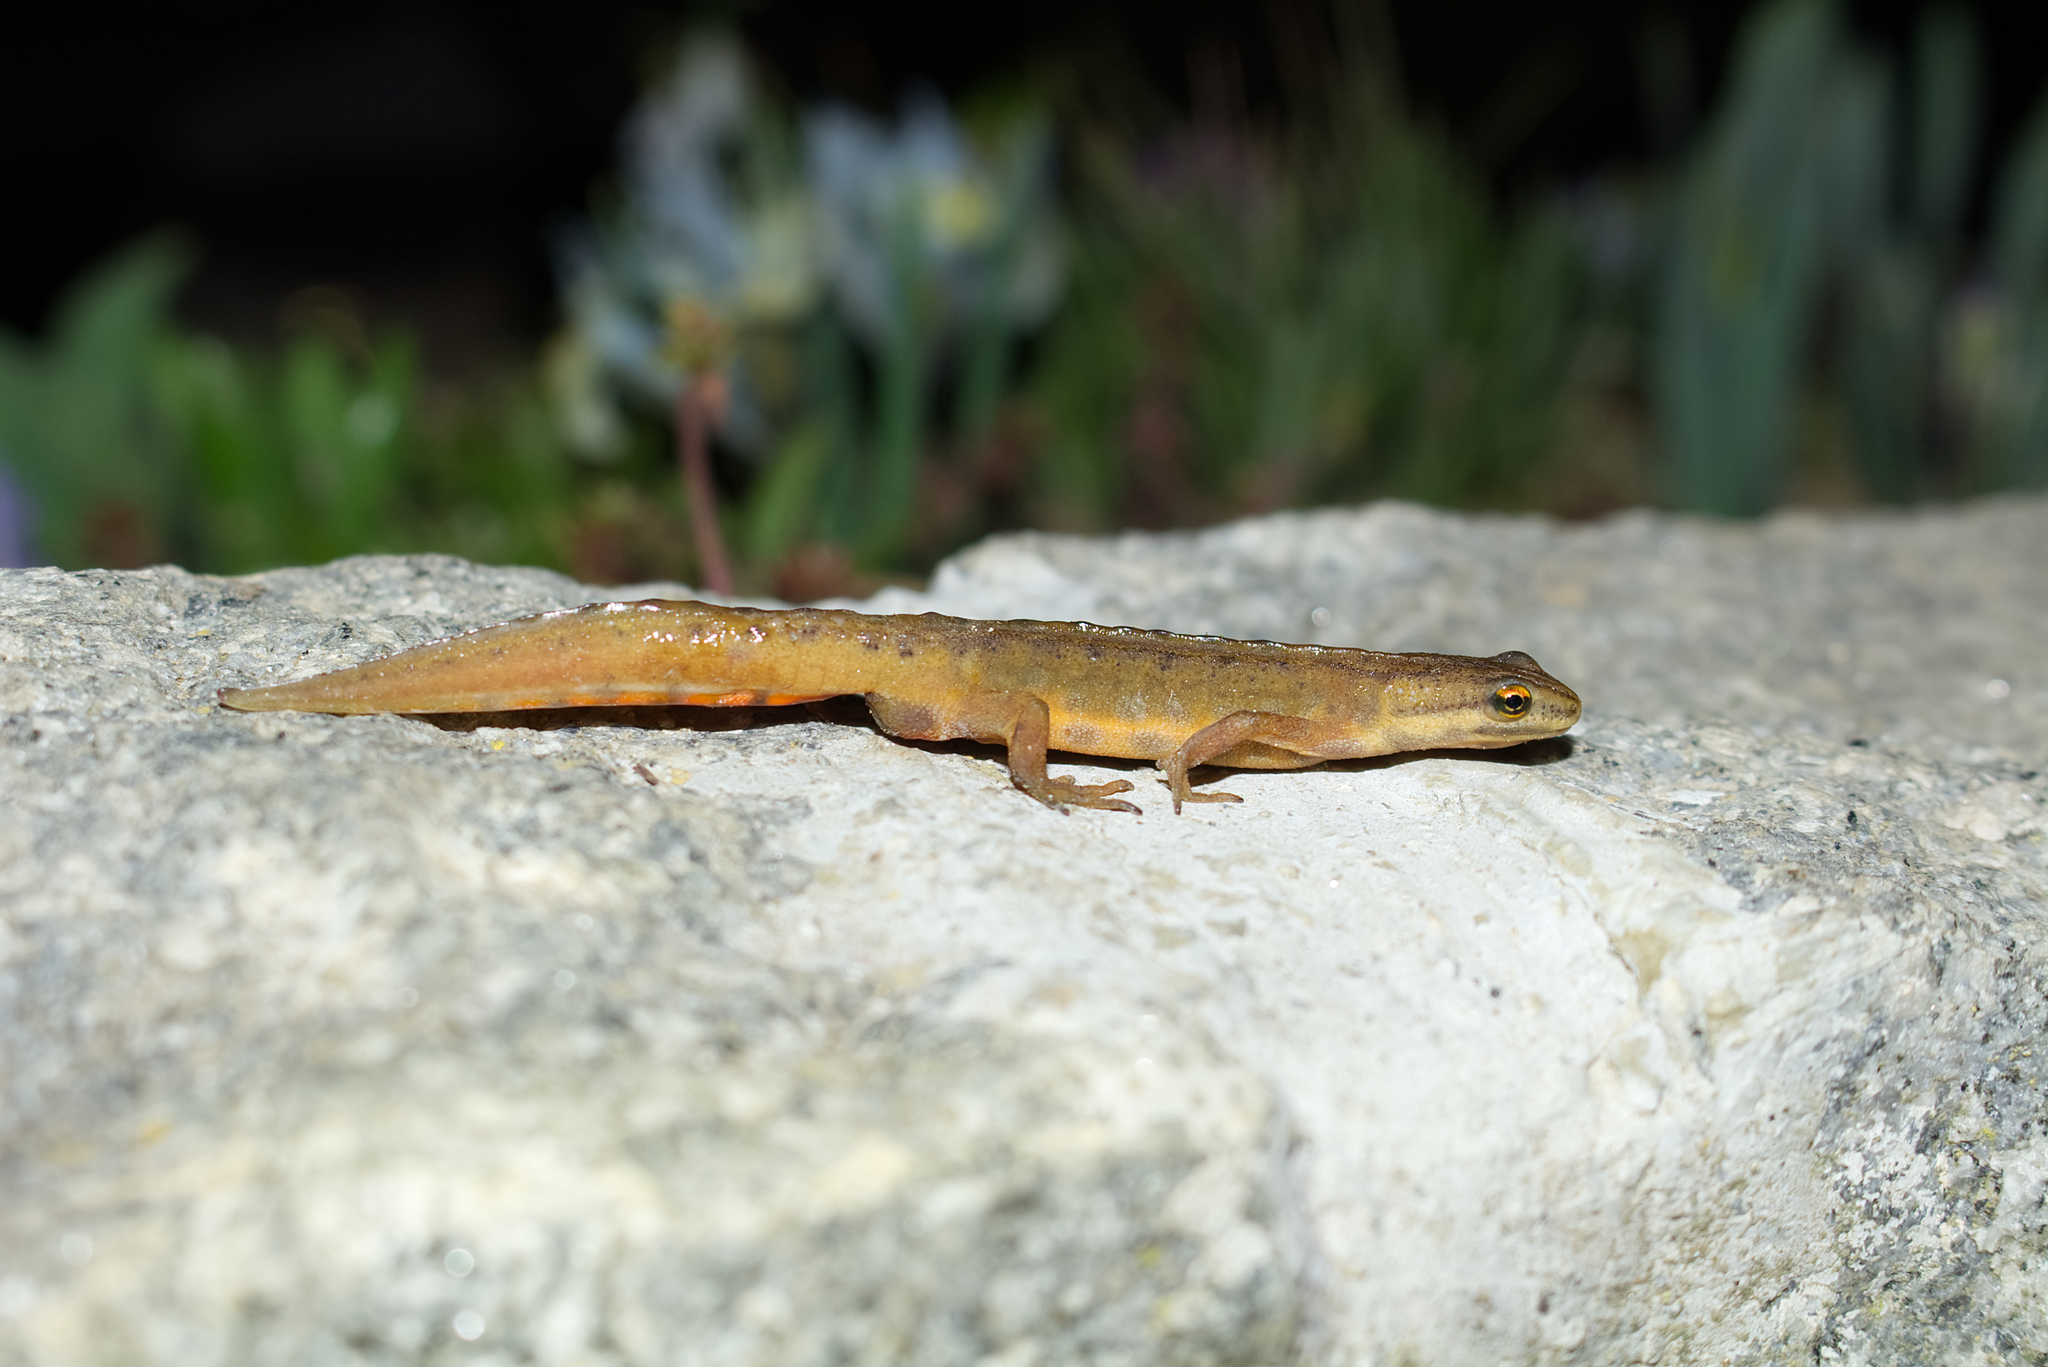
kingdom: Animalia
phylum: Chordata
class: Amphibia
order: Caudata
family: Salamandridae
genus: Lissotriton
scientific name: Lissotriton vulgaris
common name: Smooth newt
